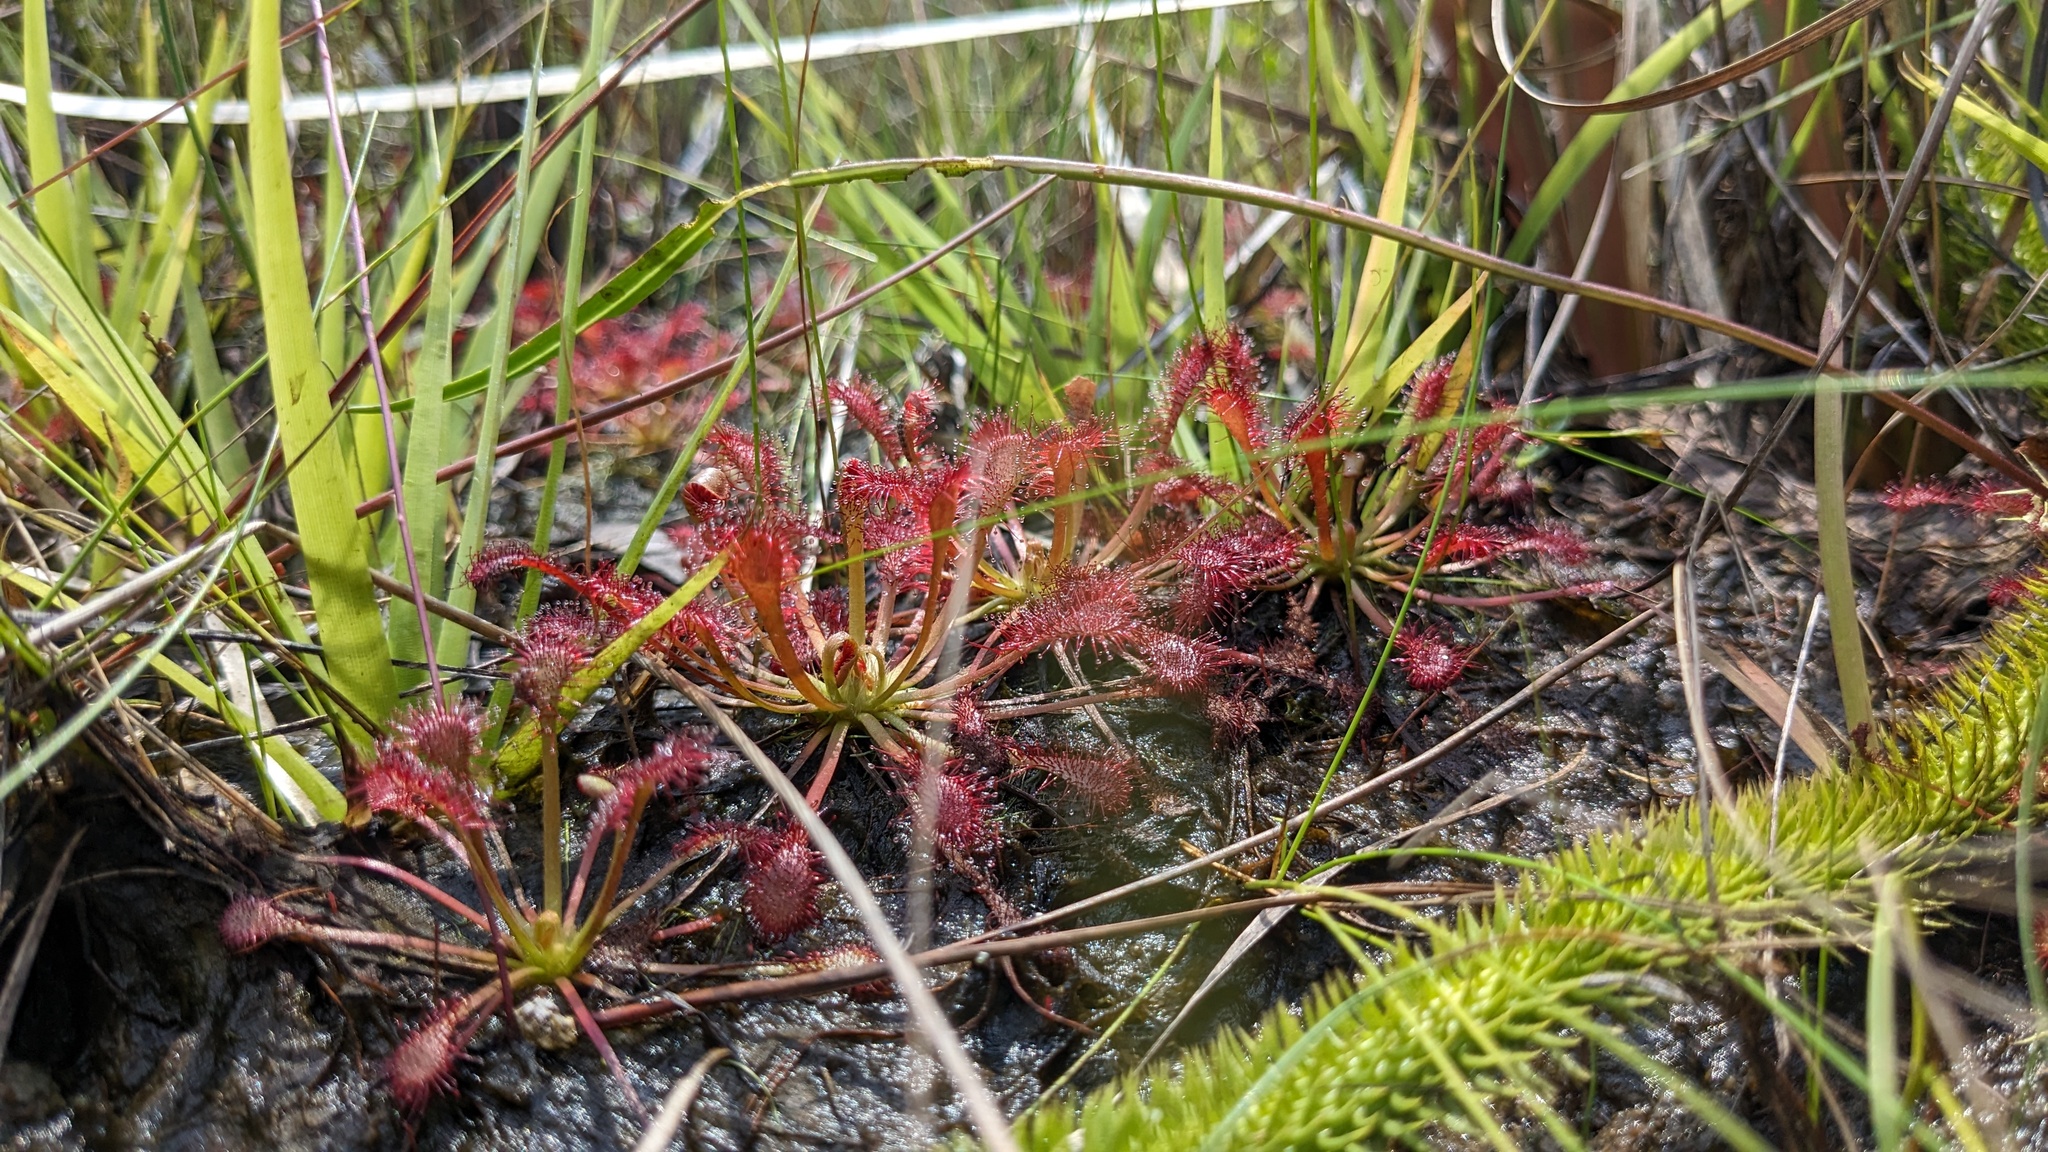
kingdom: Plantae
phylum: Tracheophyta
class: Magnoliopsida
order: Caryophyllales
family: Droseraceae
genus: Drosera
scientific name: Drosera capillaris
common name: Pink sundew
